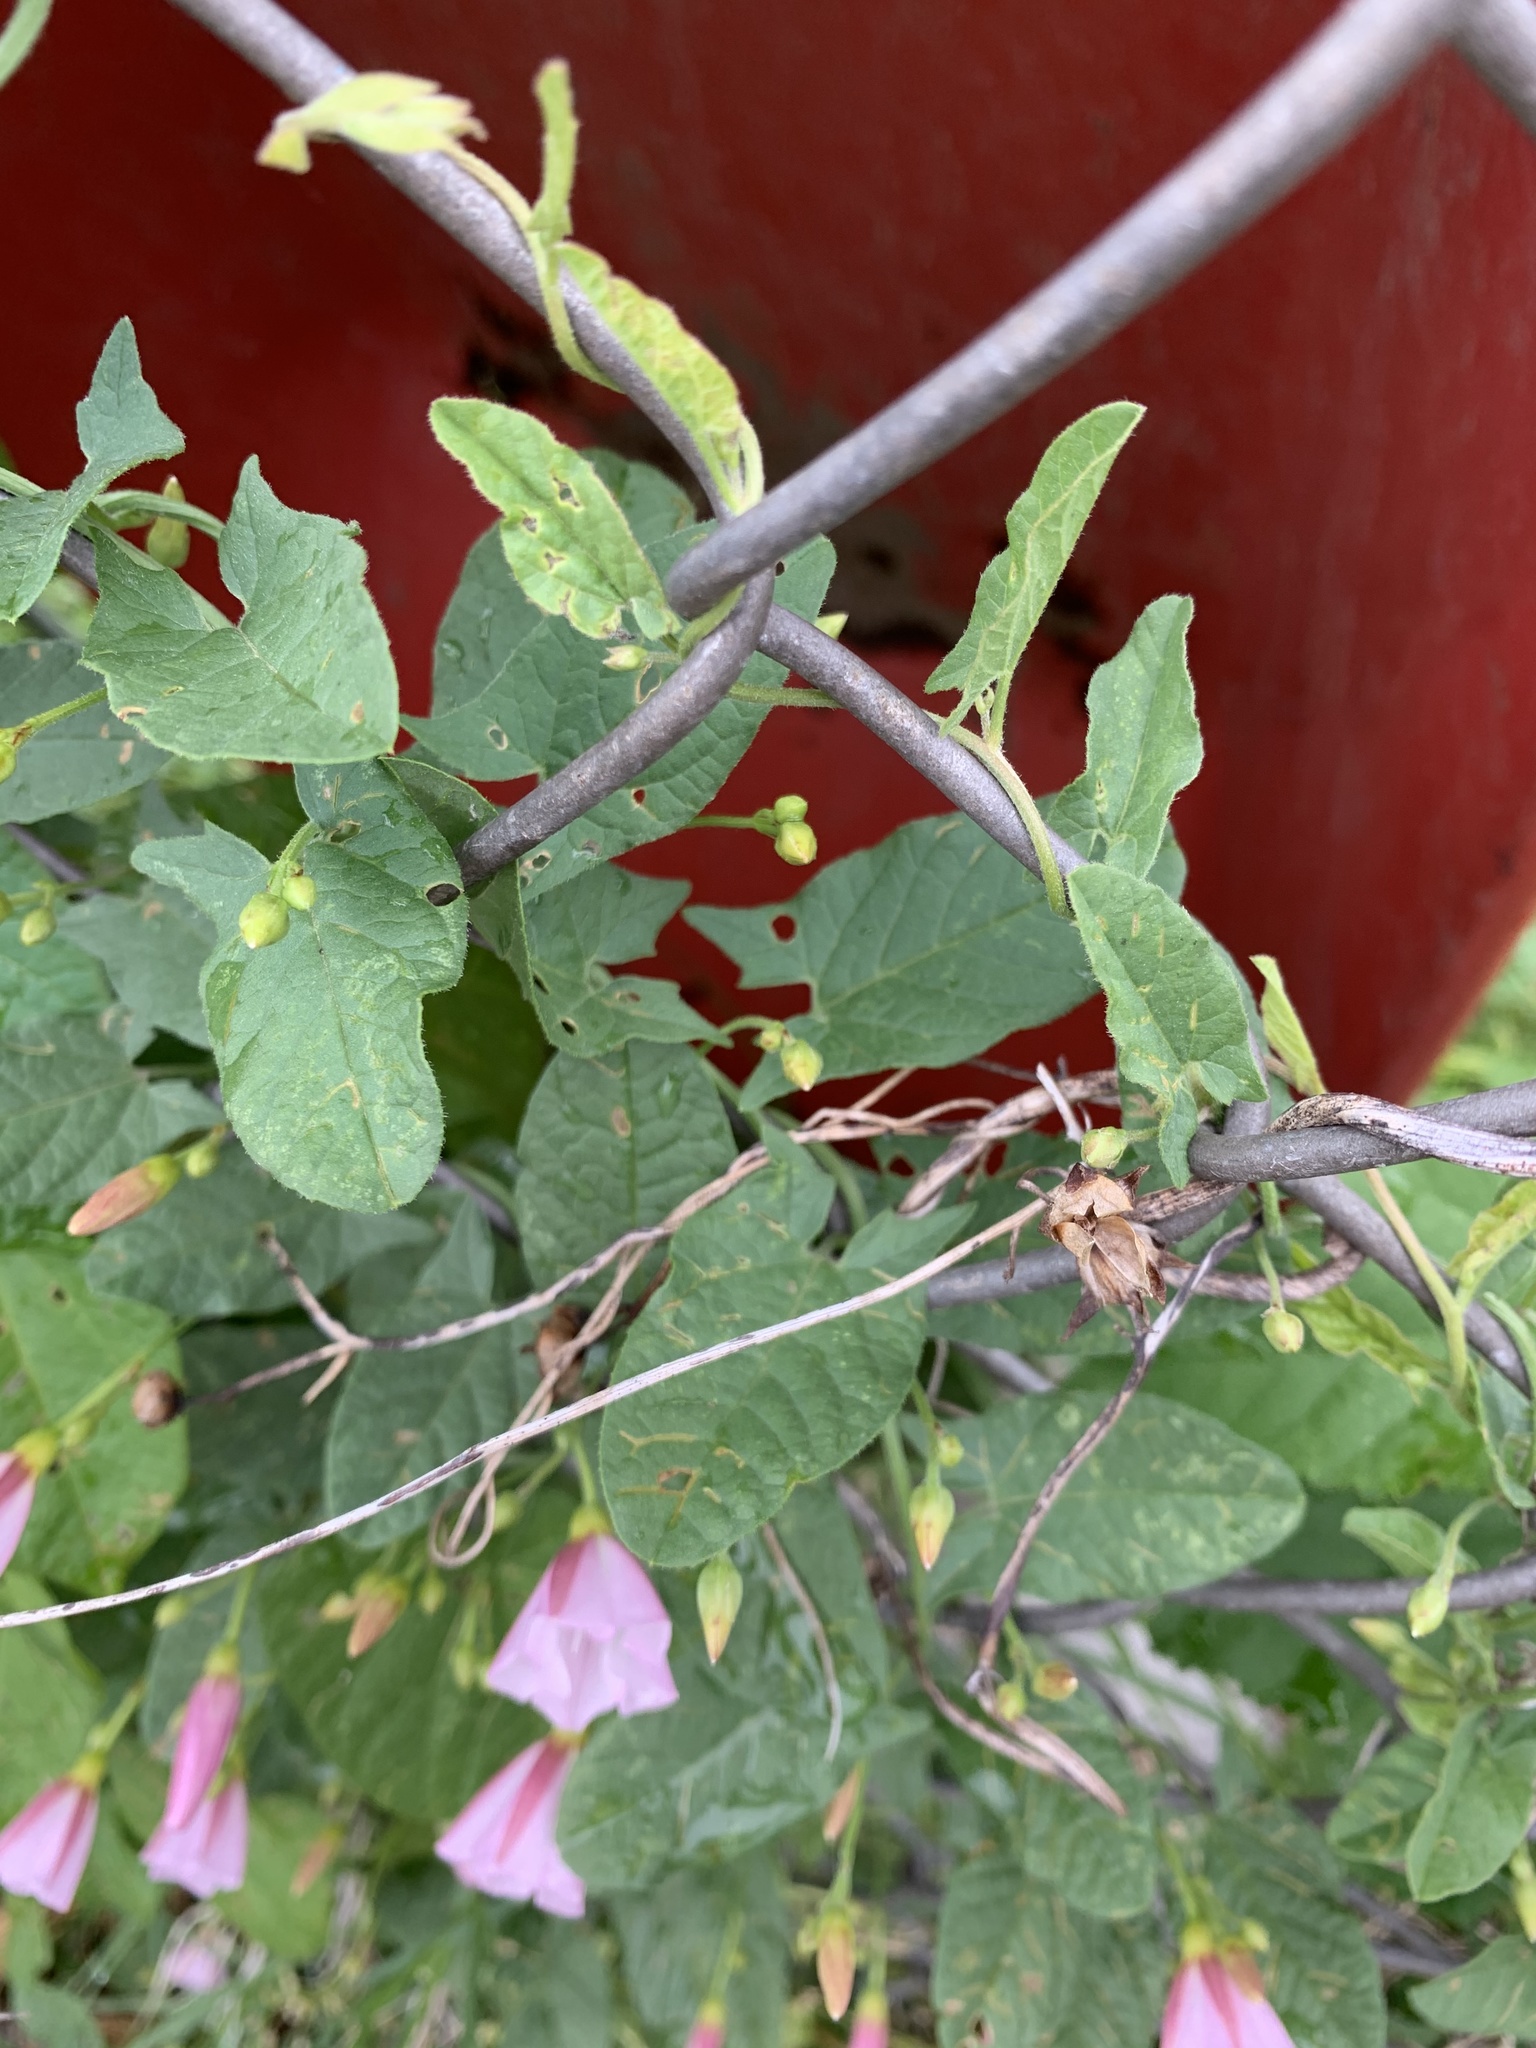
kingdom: Plantae
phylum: Tracheophyta
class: Magnoliopsida
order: Solanales
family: Convolvulaceae
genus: Convolvulus
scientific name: Convolvulus arvensis
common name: Field bindweed
